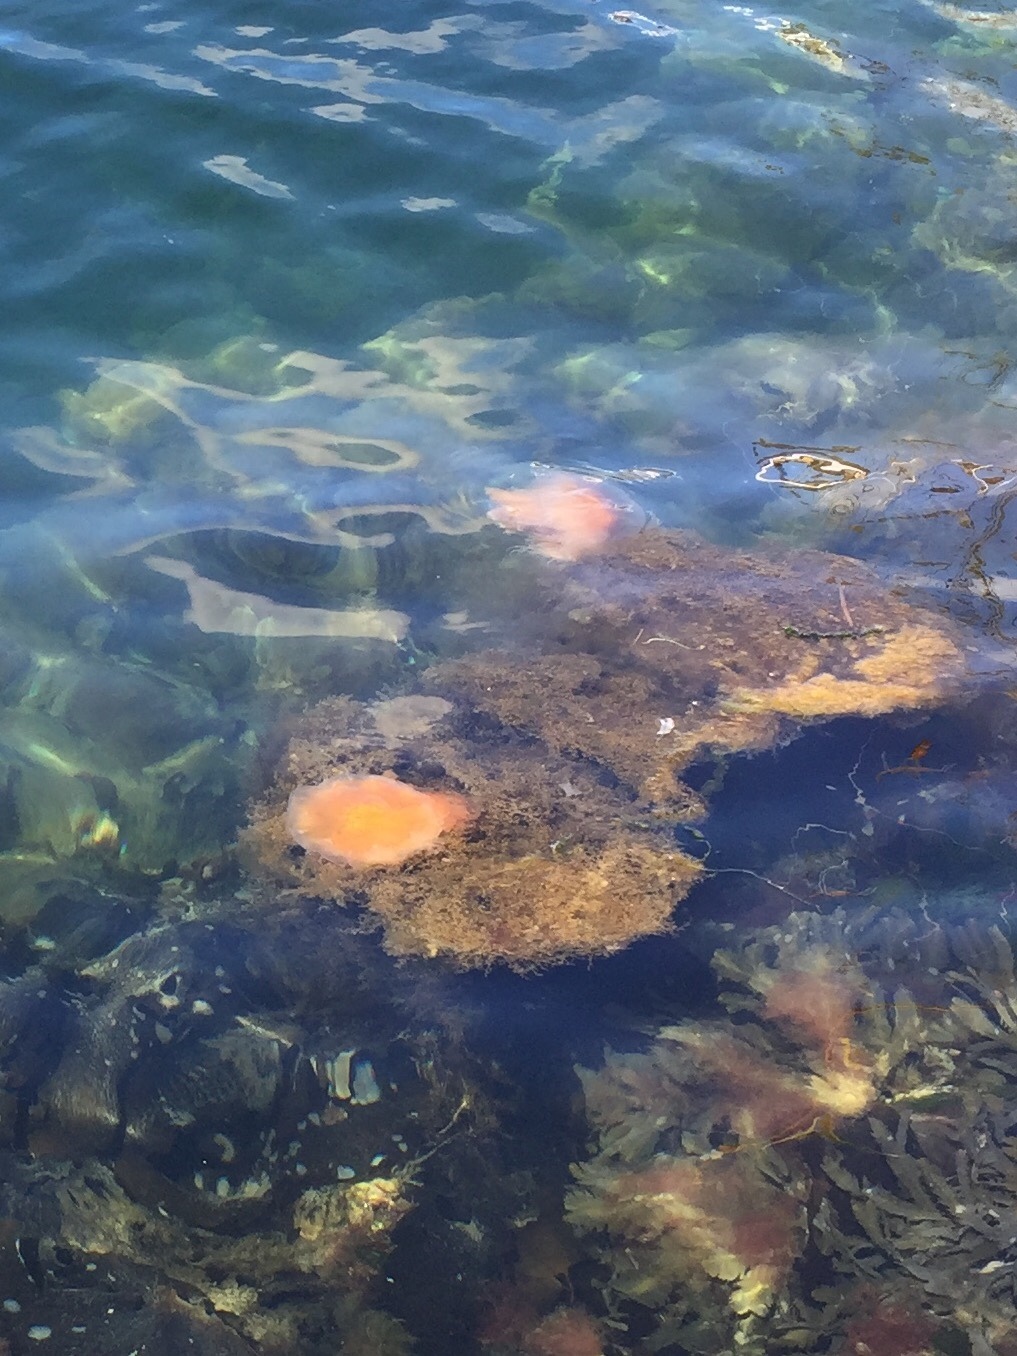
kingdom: Animalia
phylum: Cnidaria
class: Scyphozoa
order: Semaeostomeae
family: Cyaneidae
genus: Cyanea
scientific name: Cyanea capillata
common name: Lion's mane jellyfish
